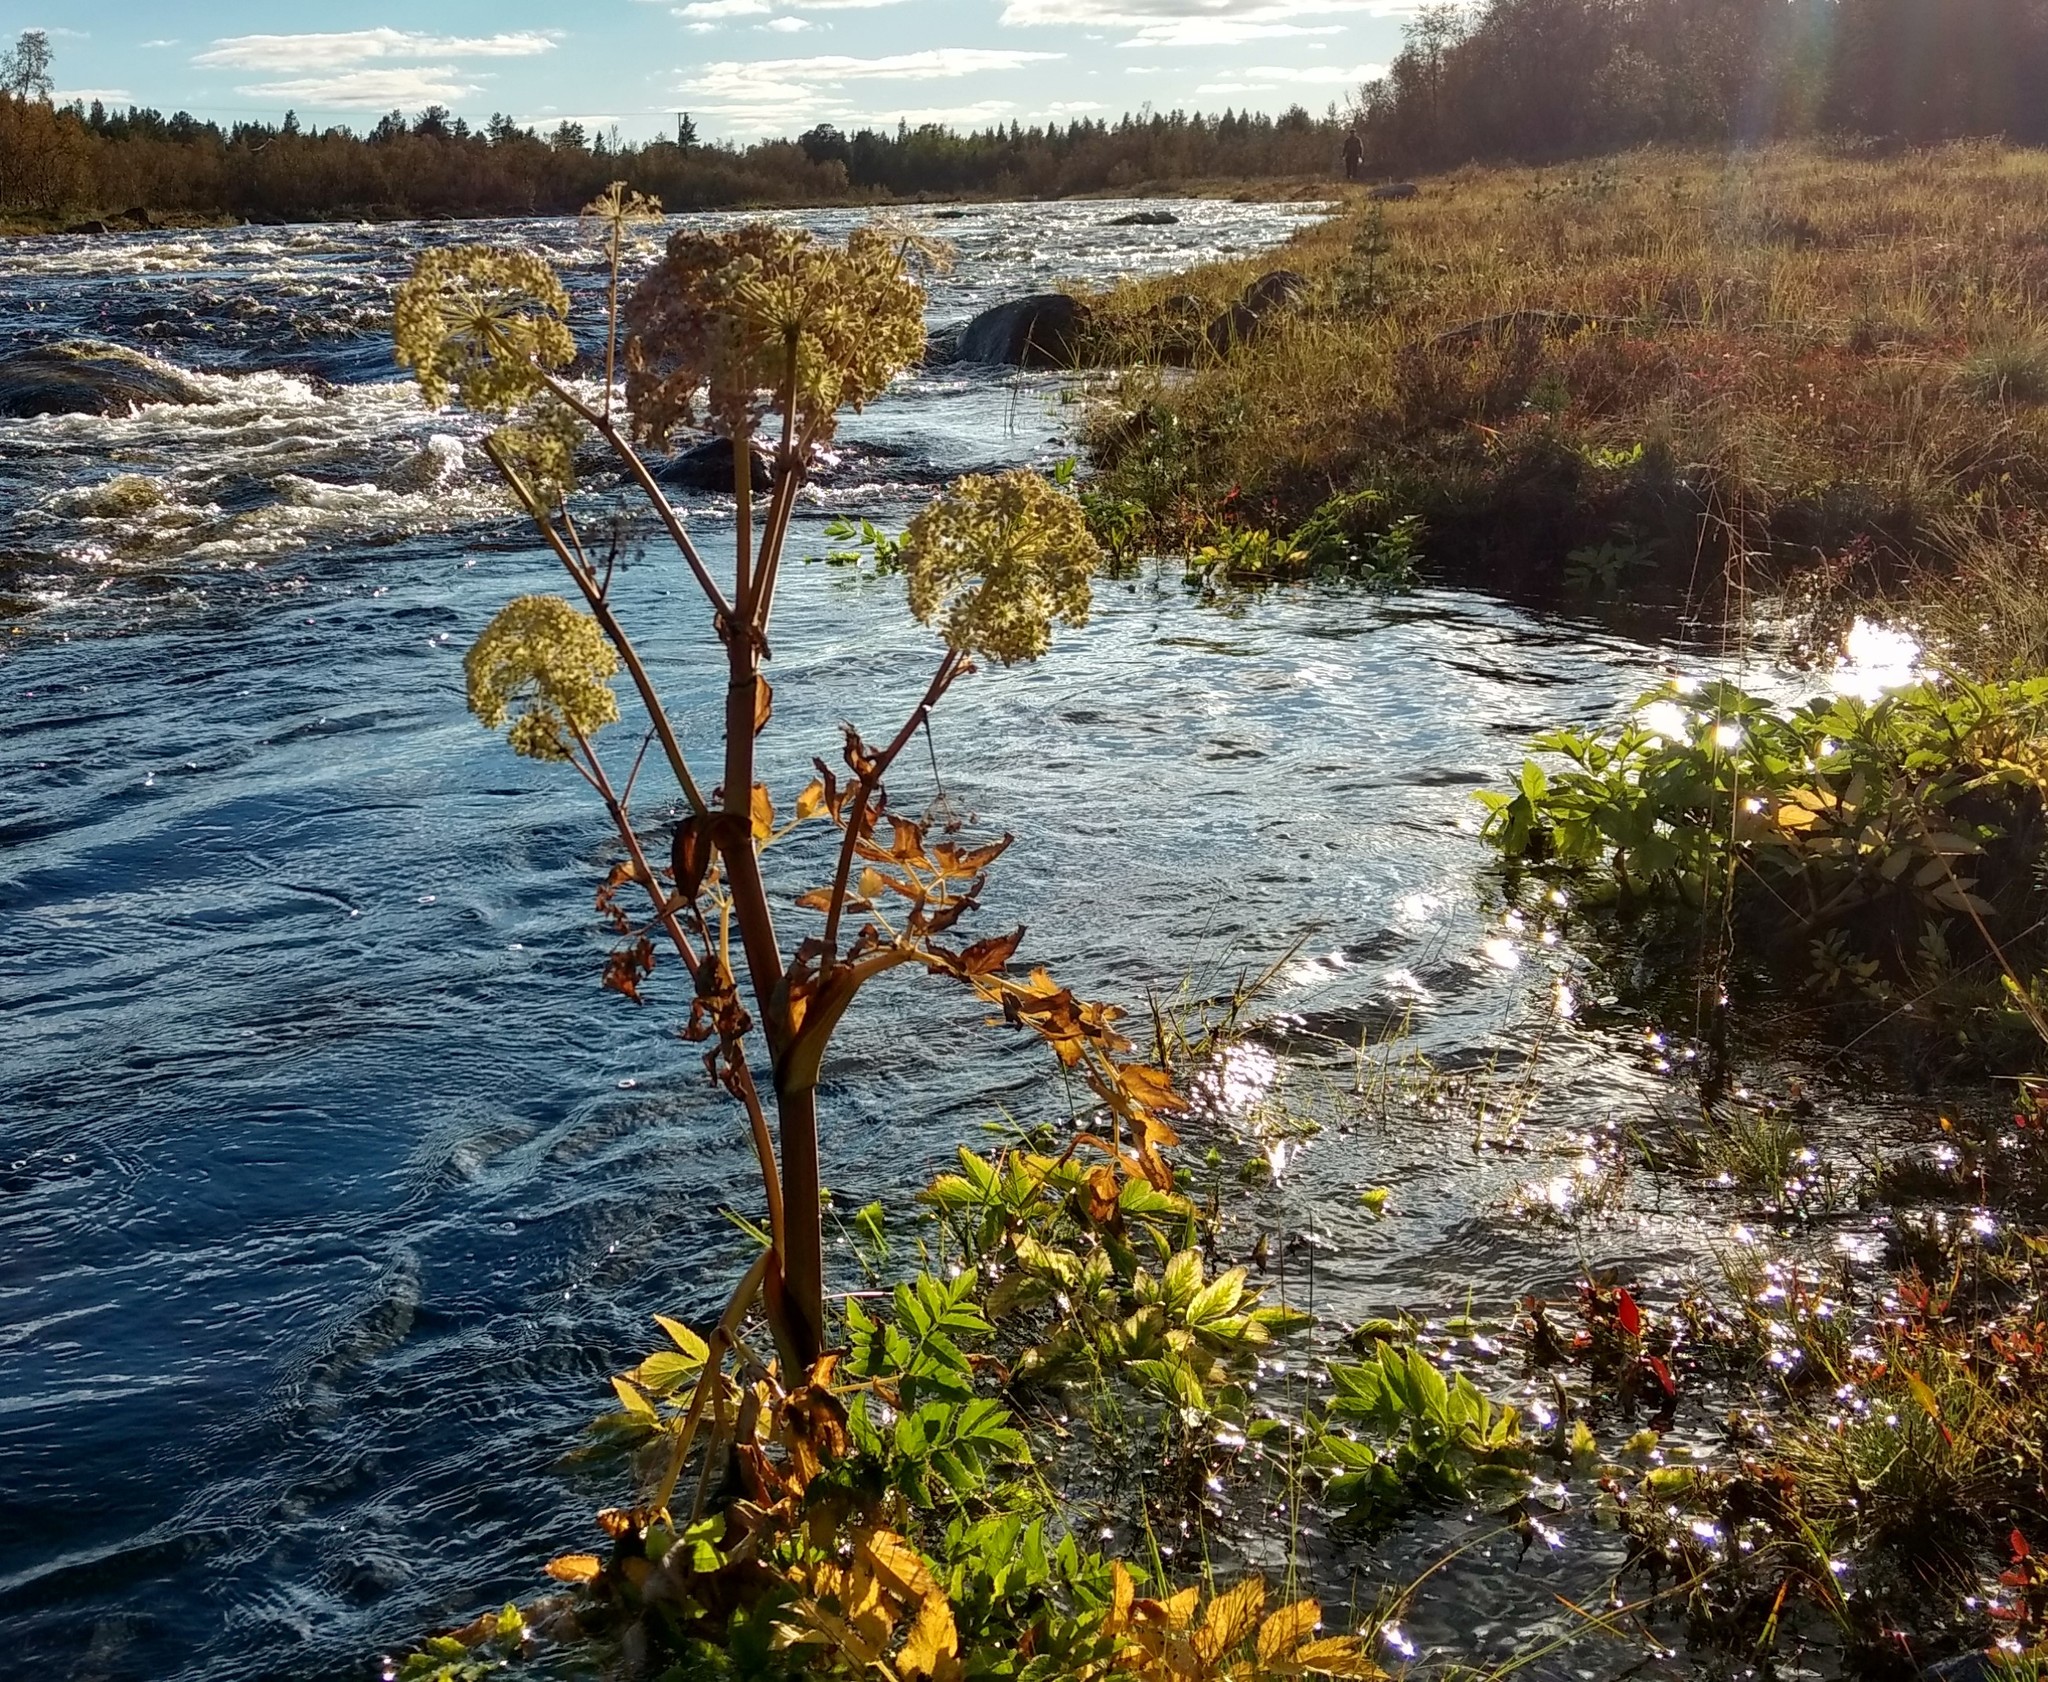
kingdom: Plantae
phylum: Tracheophyta
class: Magnoliopsida
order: Apiales
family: Apiaceae
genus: Angelica
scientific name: Angelica archangelica
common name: Garden angelica
